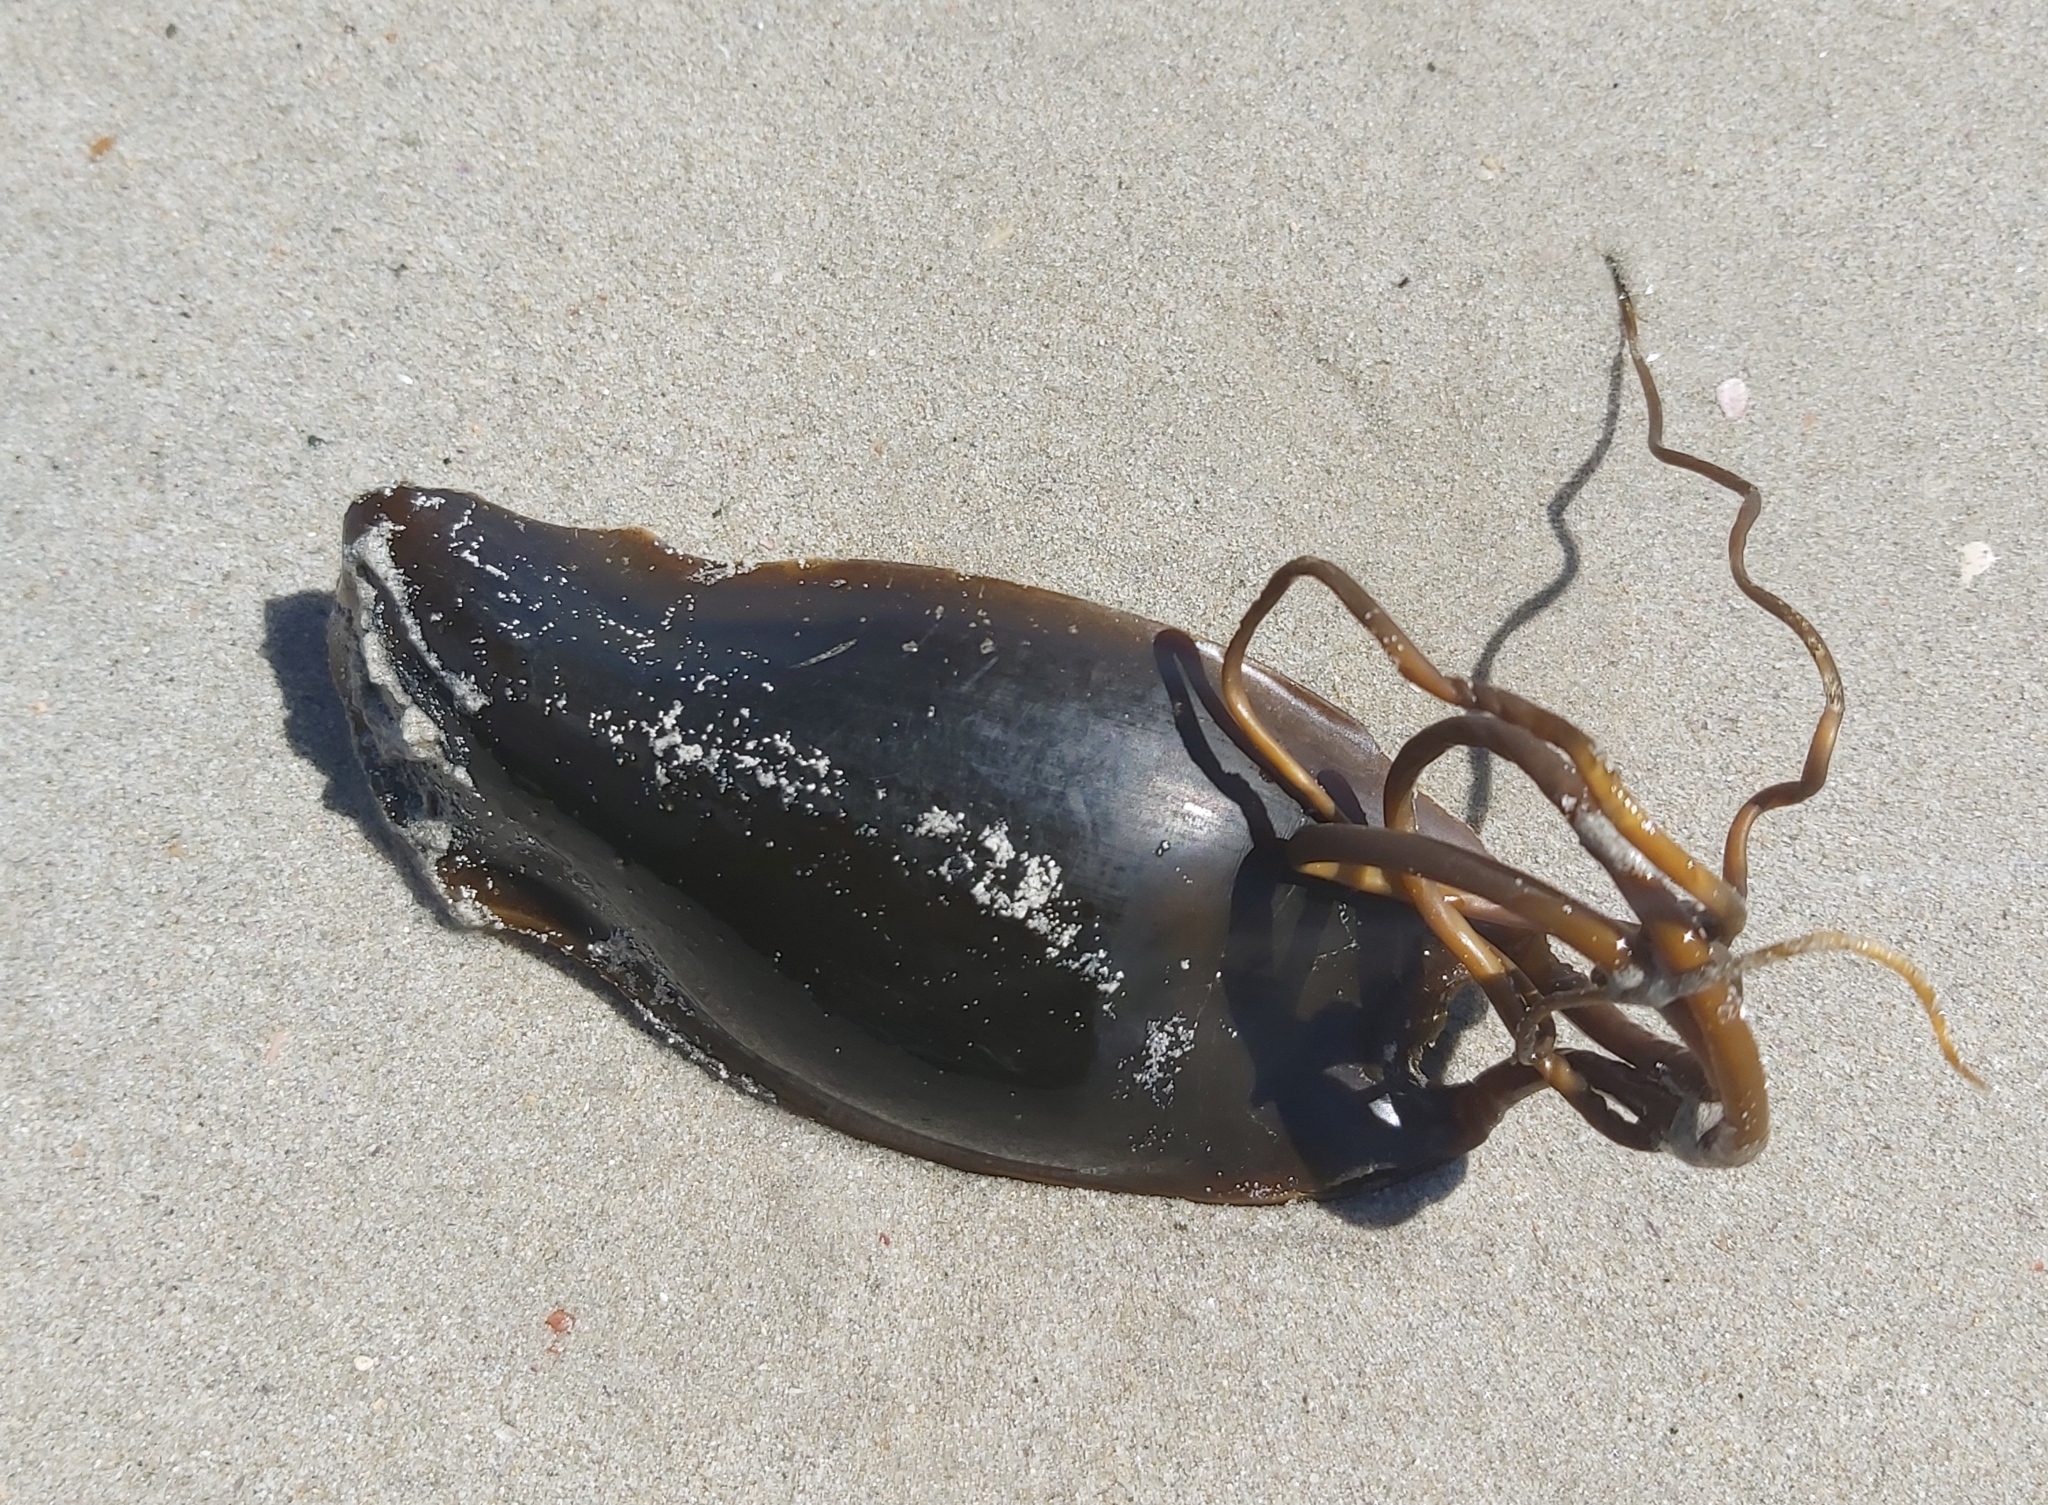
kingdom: Animalia
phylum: Chordata
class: Elasmobranchii
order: Carcharhiniformes
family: Scyliorhinidae
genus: Poroderma
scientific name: Poroderma africanum
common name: Pyjama shark
